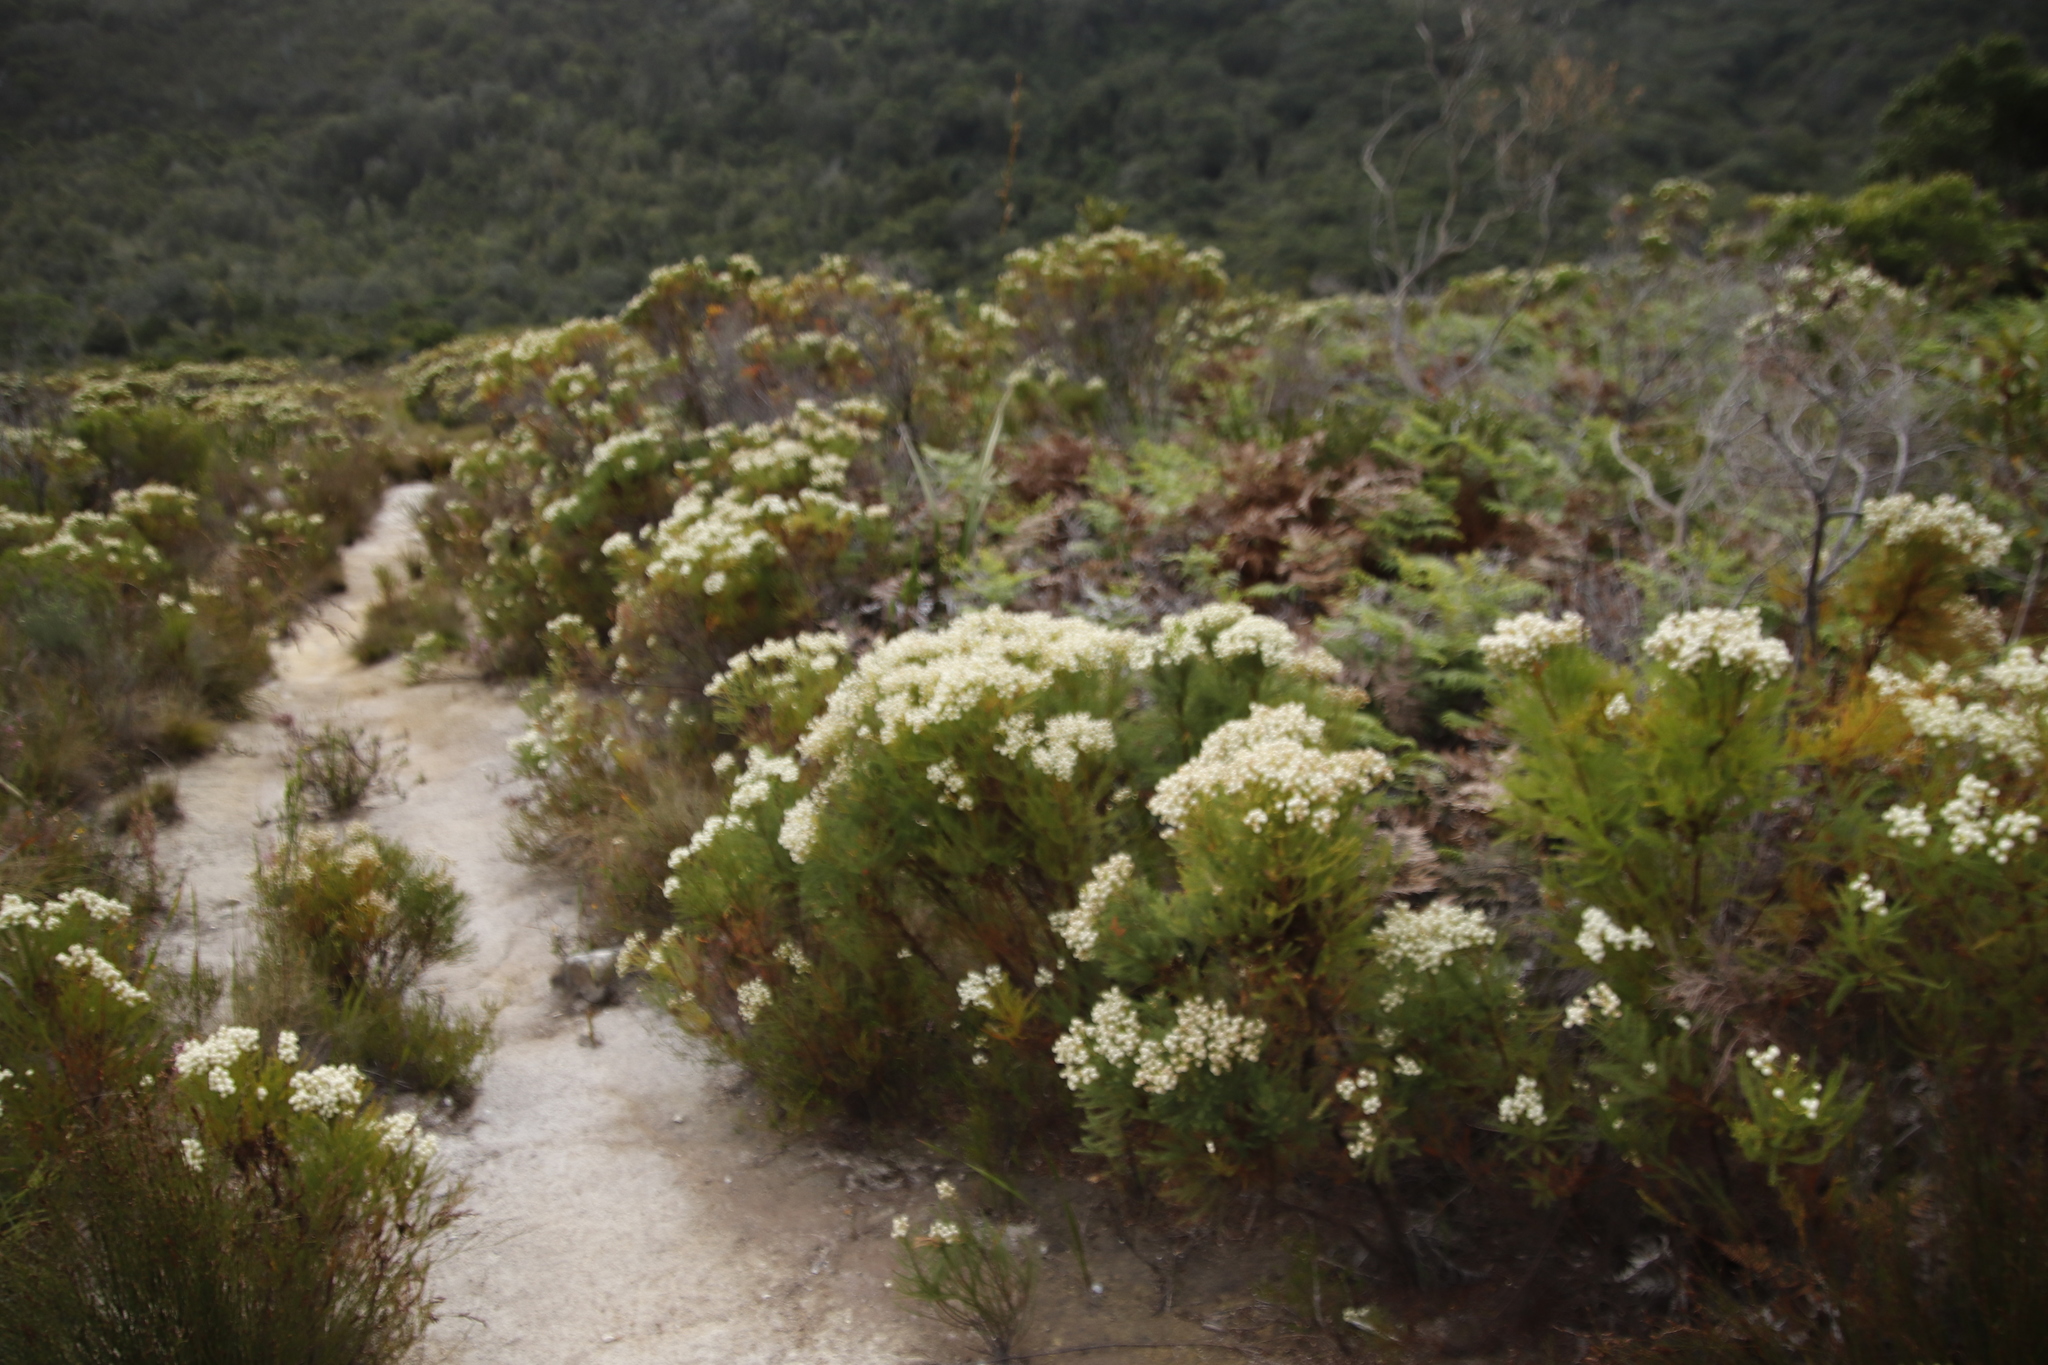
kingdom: Plantae
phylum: Tracheophyta
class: Magnoliopsida
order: Bruniales
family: Bruniaceae
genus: Berzelia
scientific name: Berzelia lanuginosa
